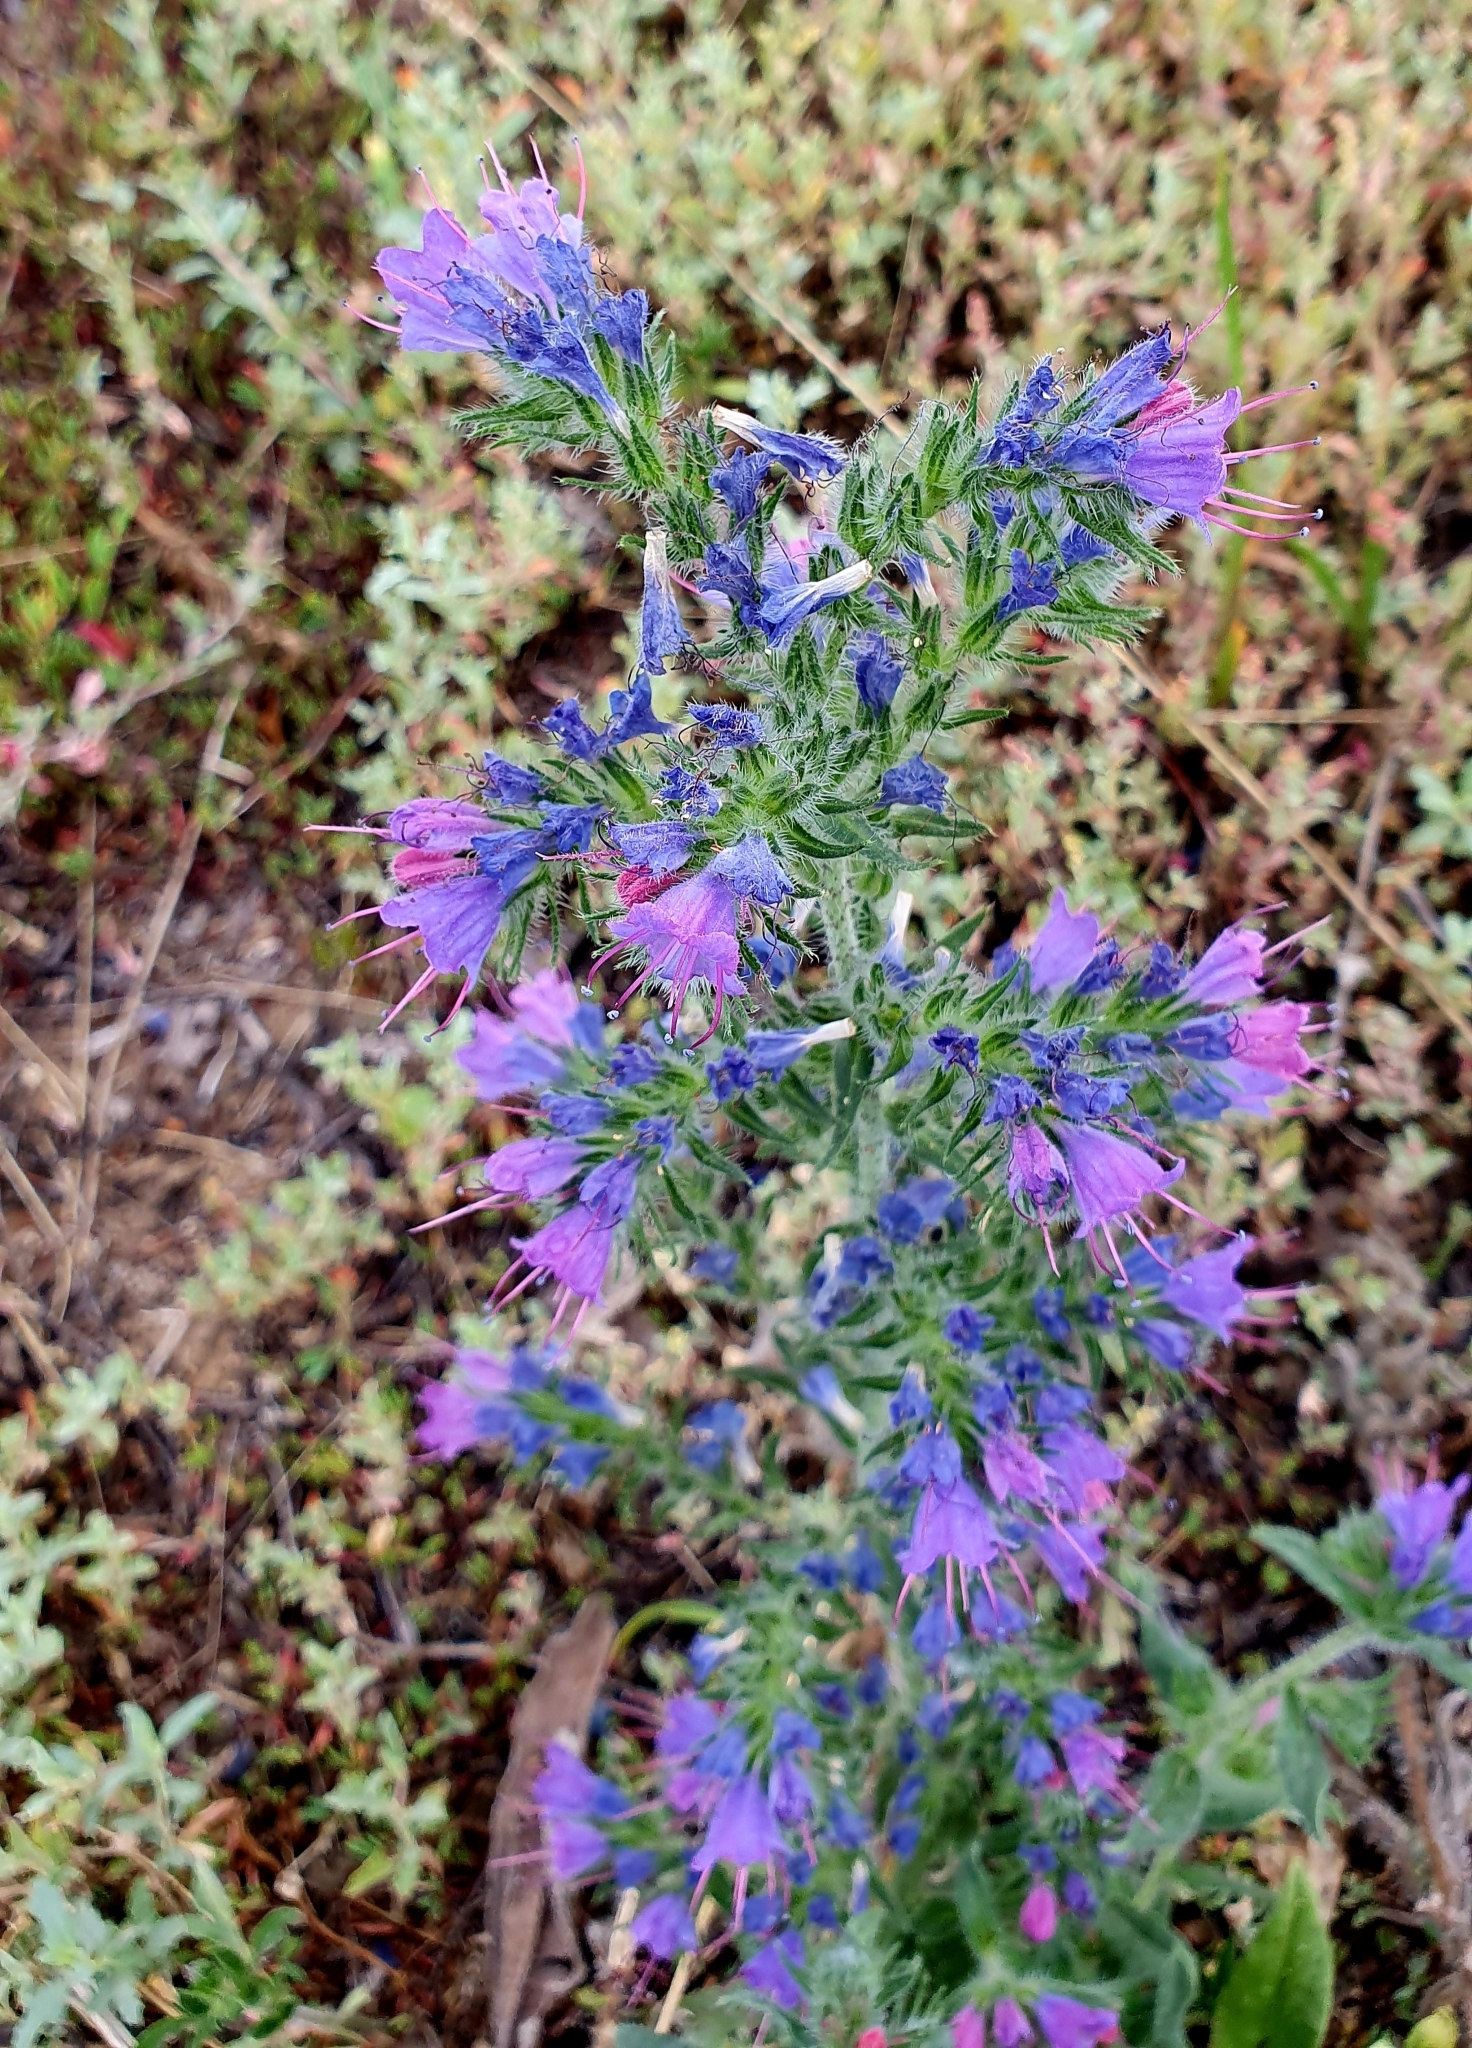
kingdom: Plantae
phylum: Tracheophyta
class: Magnoliopsida
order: Boraginales
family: Boraginaceae
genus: Echium
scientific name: Echium vulgare
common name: Common viper's bugloss
